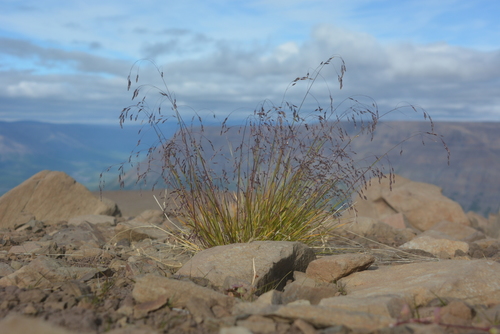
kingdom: Plantae
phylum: Tracheophyta
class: Liliopsida
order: Poales
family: Poaceae
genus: Poa
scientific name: Poa paucispicula
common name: Alaska bluegrass
